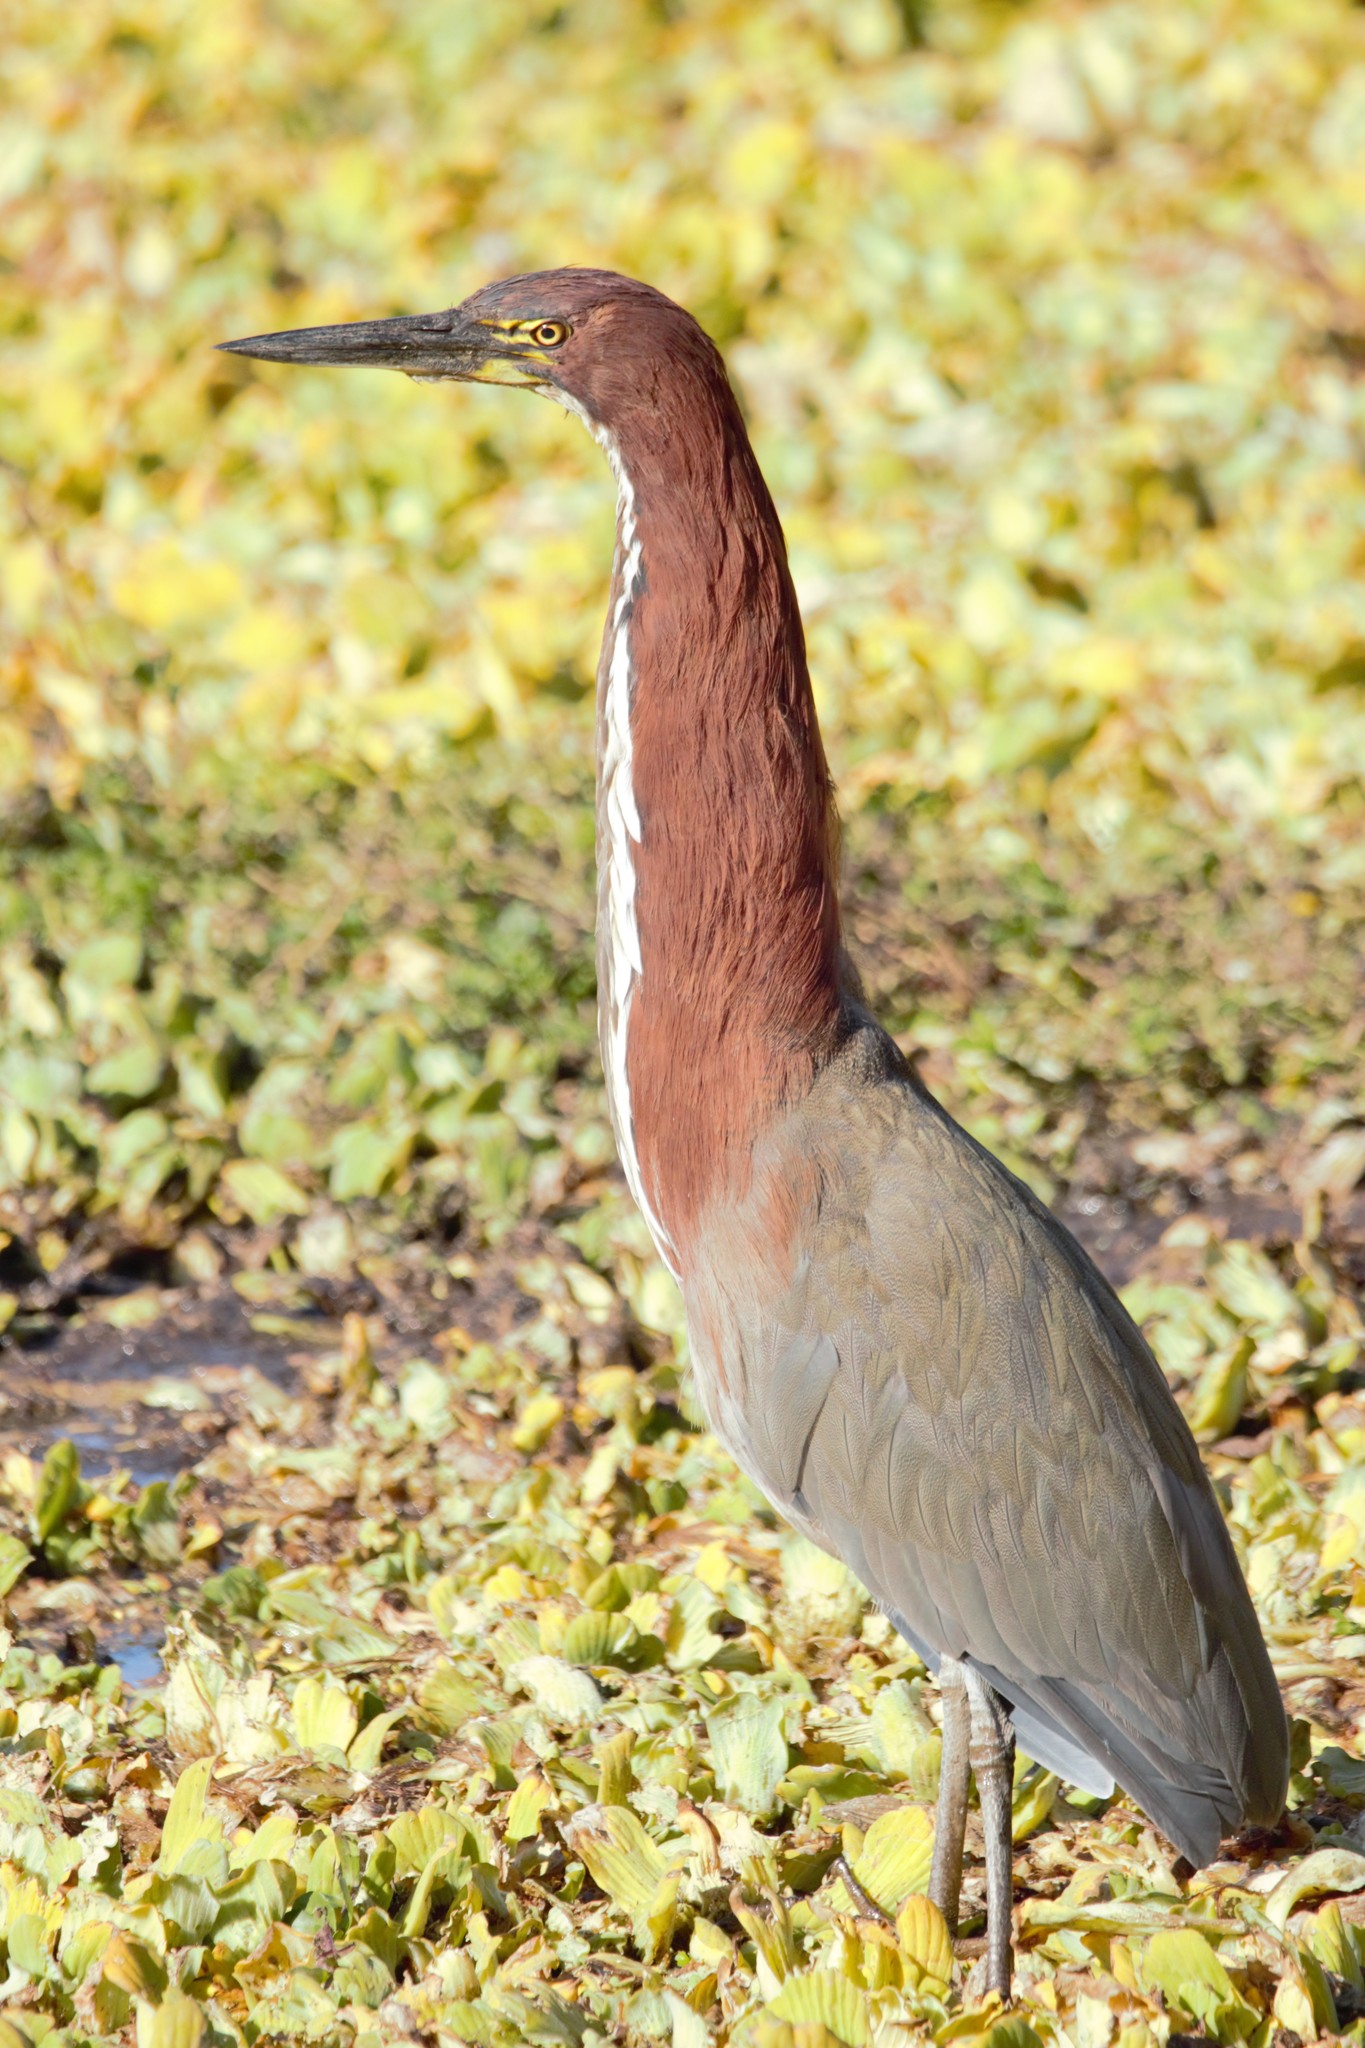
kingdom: Animalia
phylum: Chordata
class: Aves
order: Pelecaniformes
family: Ardeidae
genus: Tigrisoma
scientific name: Tigrisoma lineatum
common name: Rufescent tiger-heron
